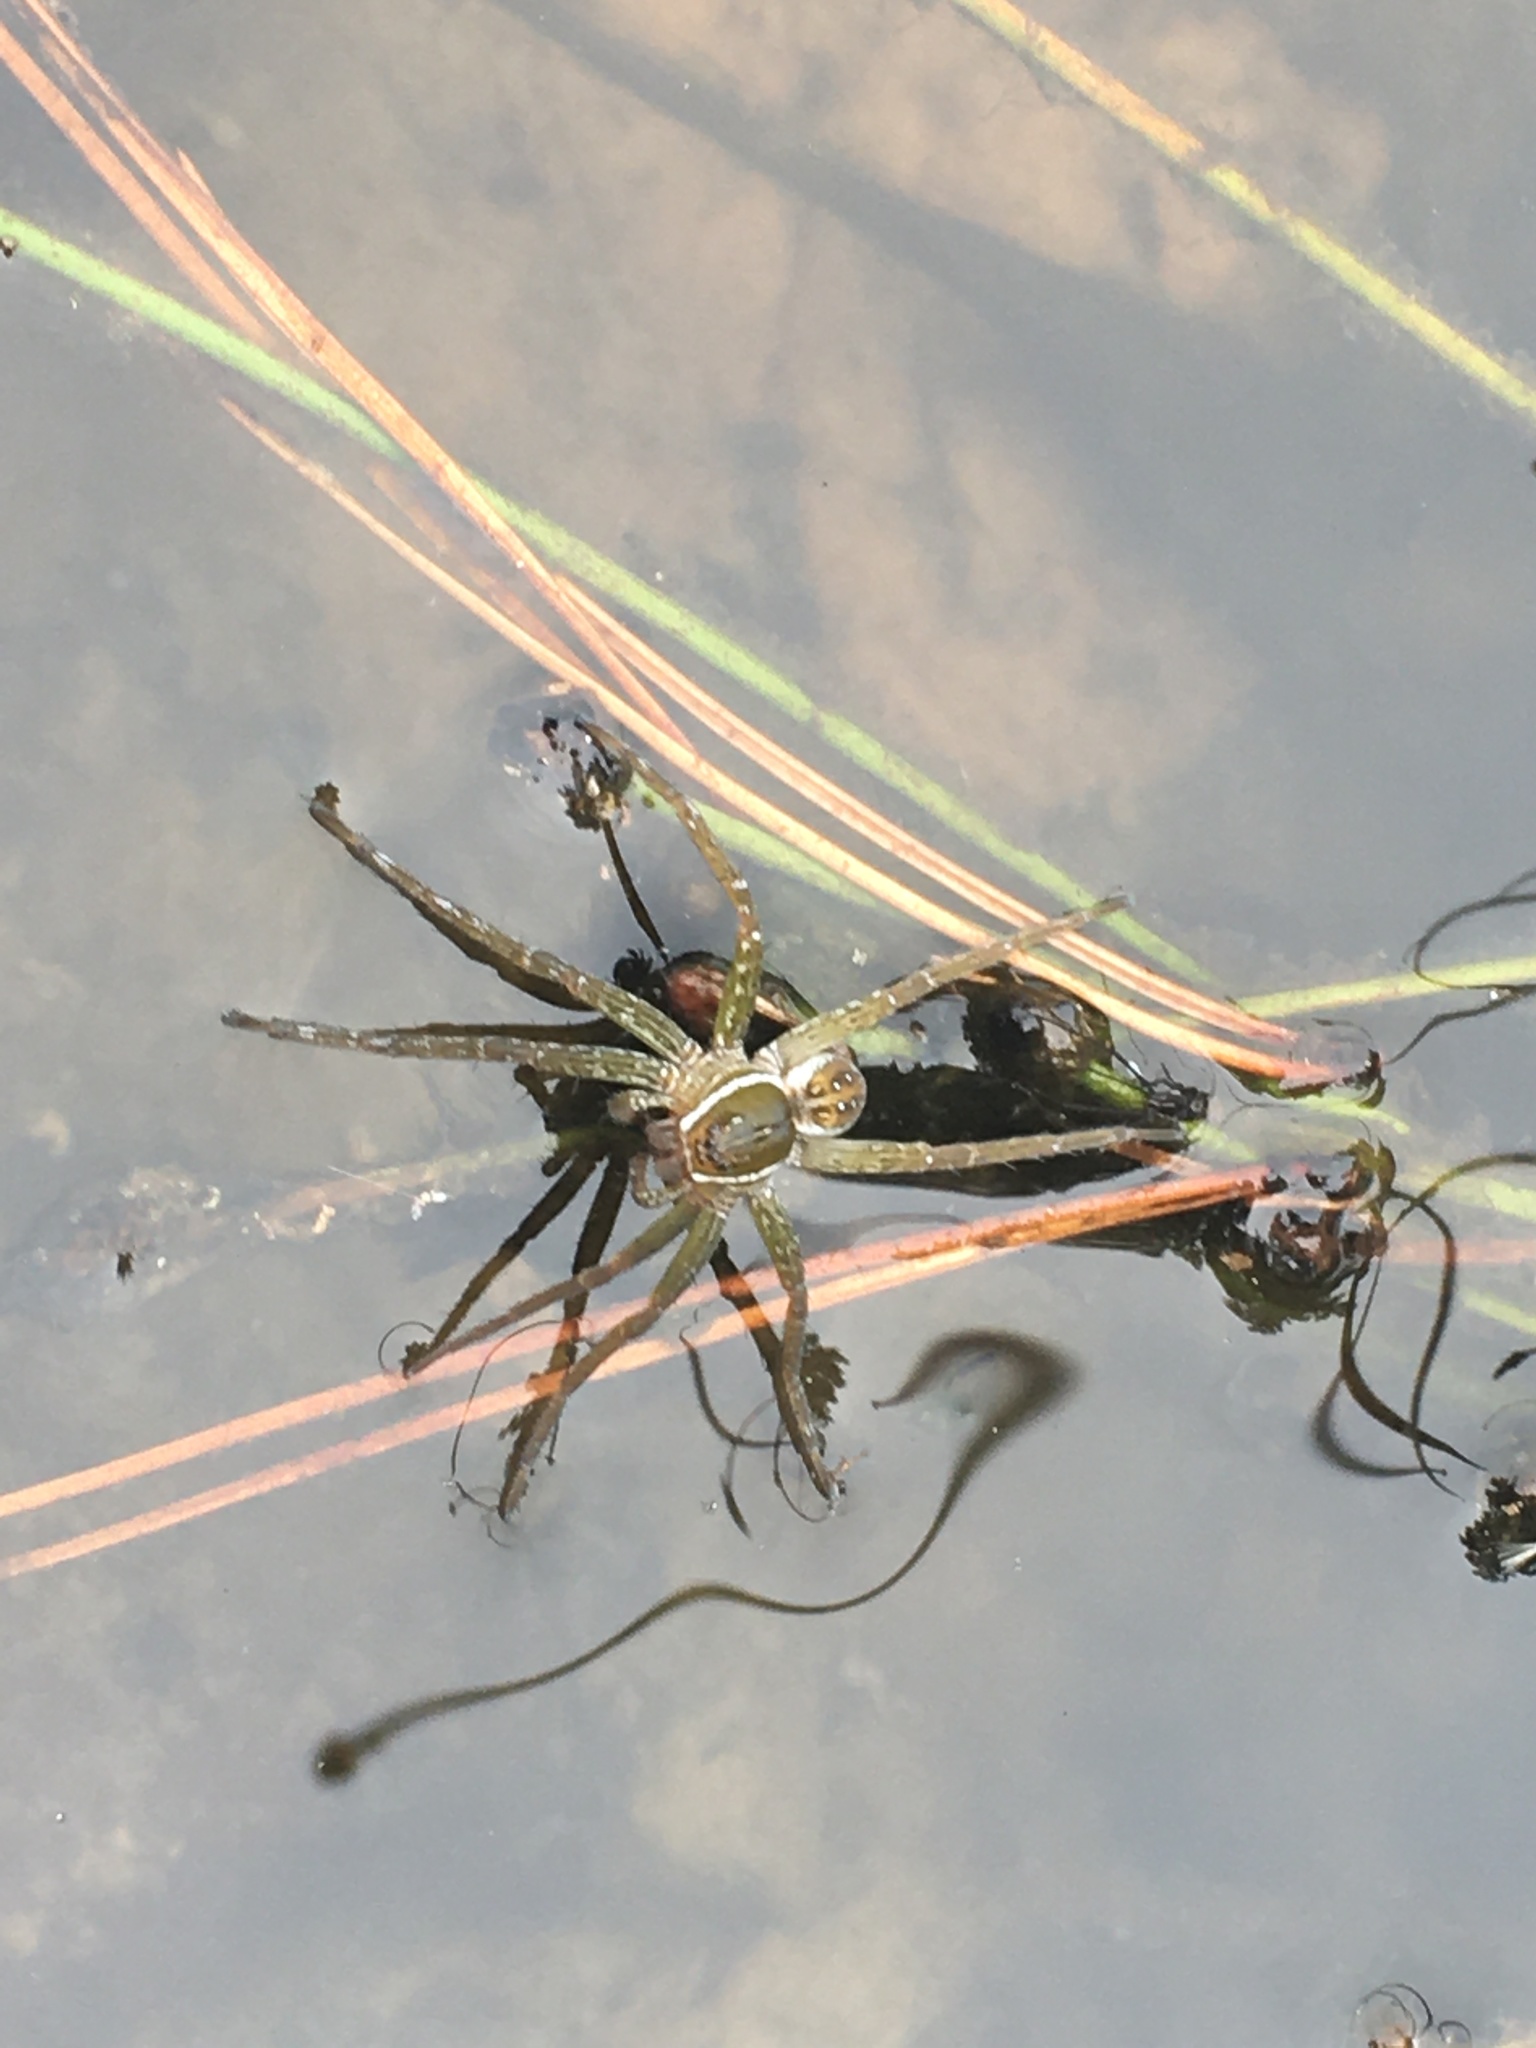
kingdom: Animalia
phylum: Arthropoda
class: Arachnida
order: Araneae
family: Pisauridae
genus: Dolomedes
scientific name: Dolomedes triton
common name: Six-spotted fishing spider
